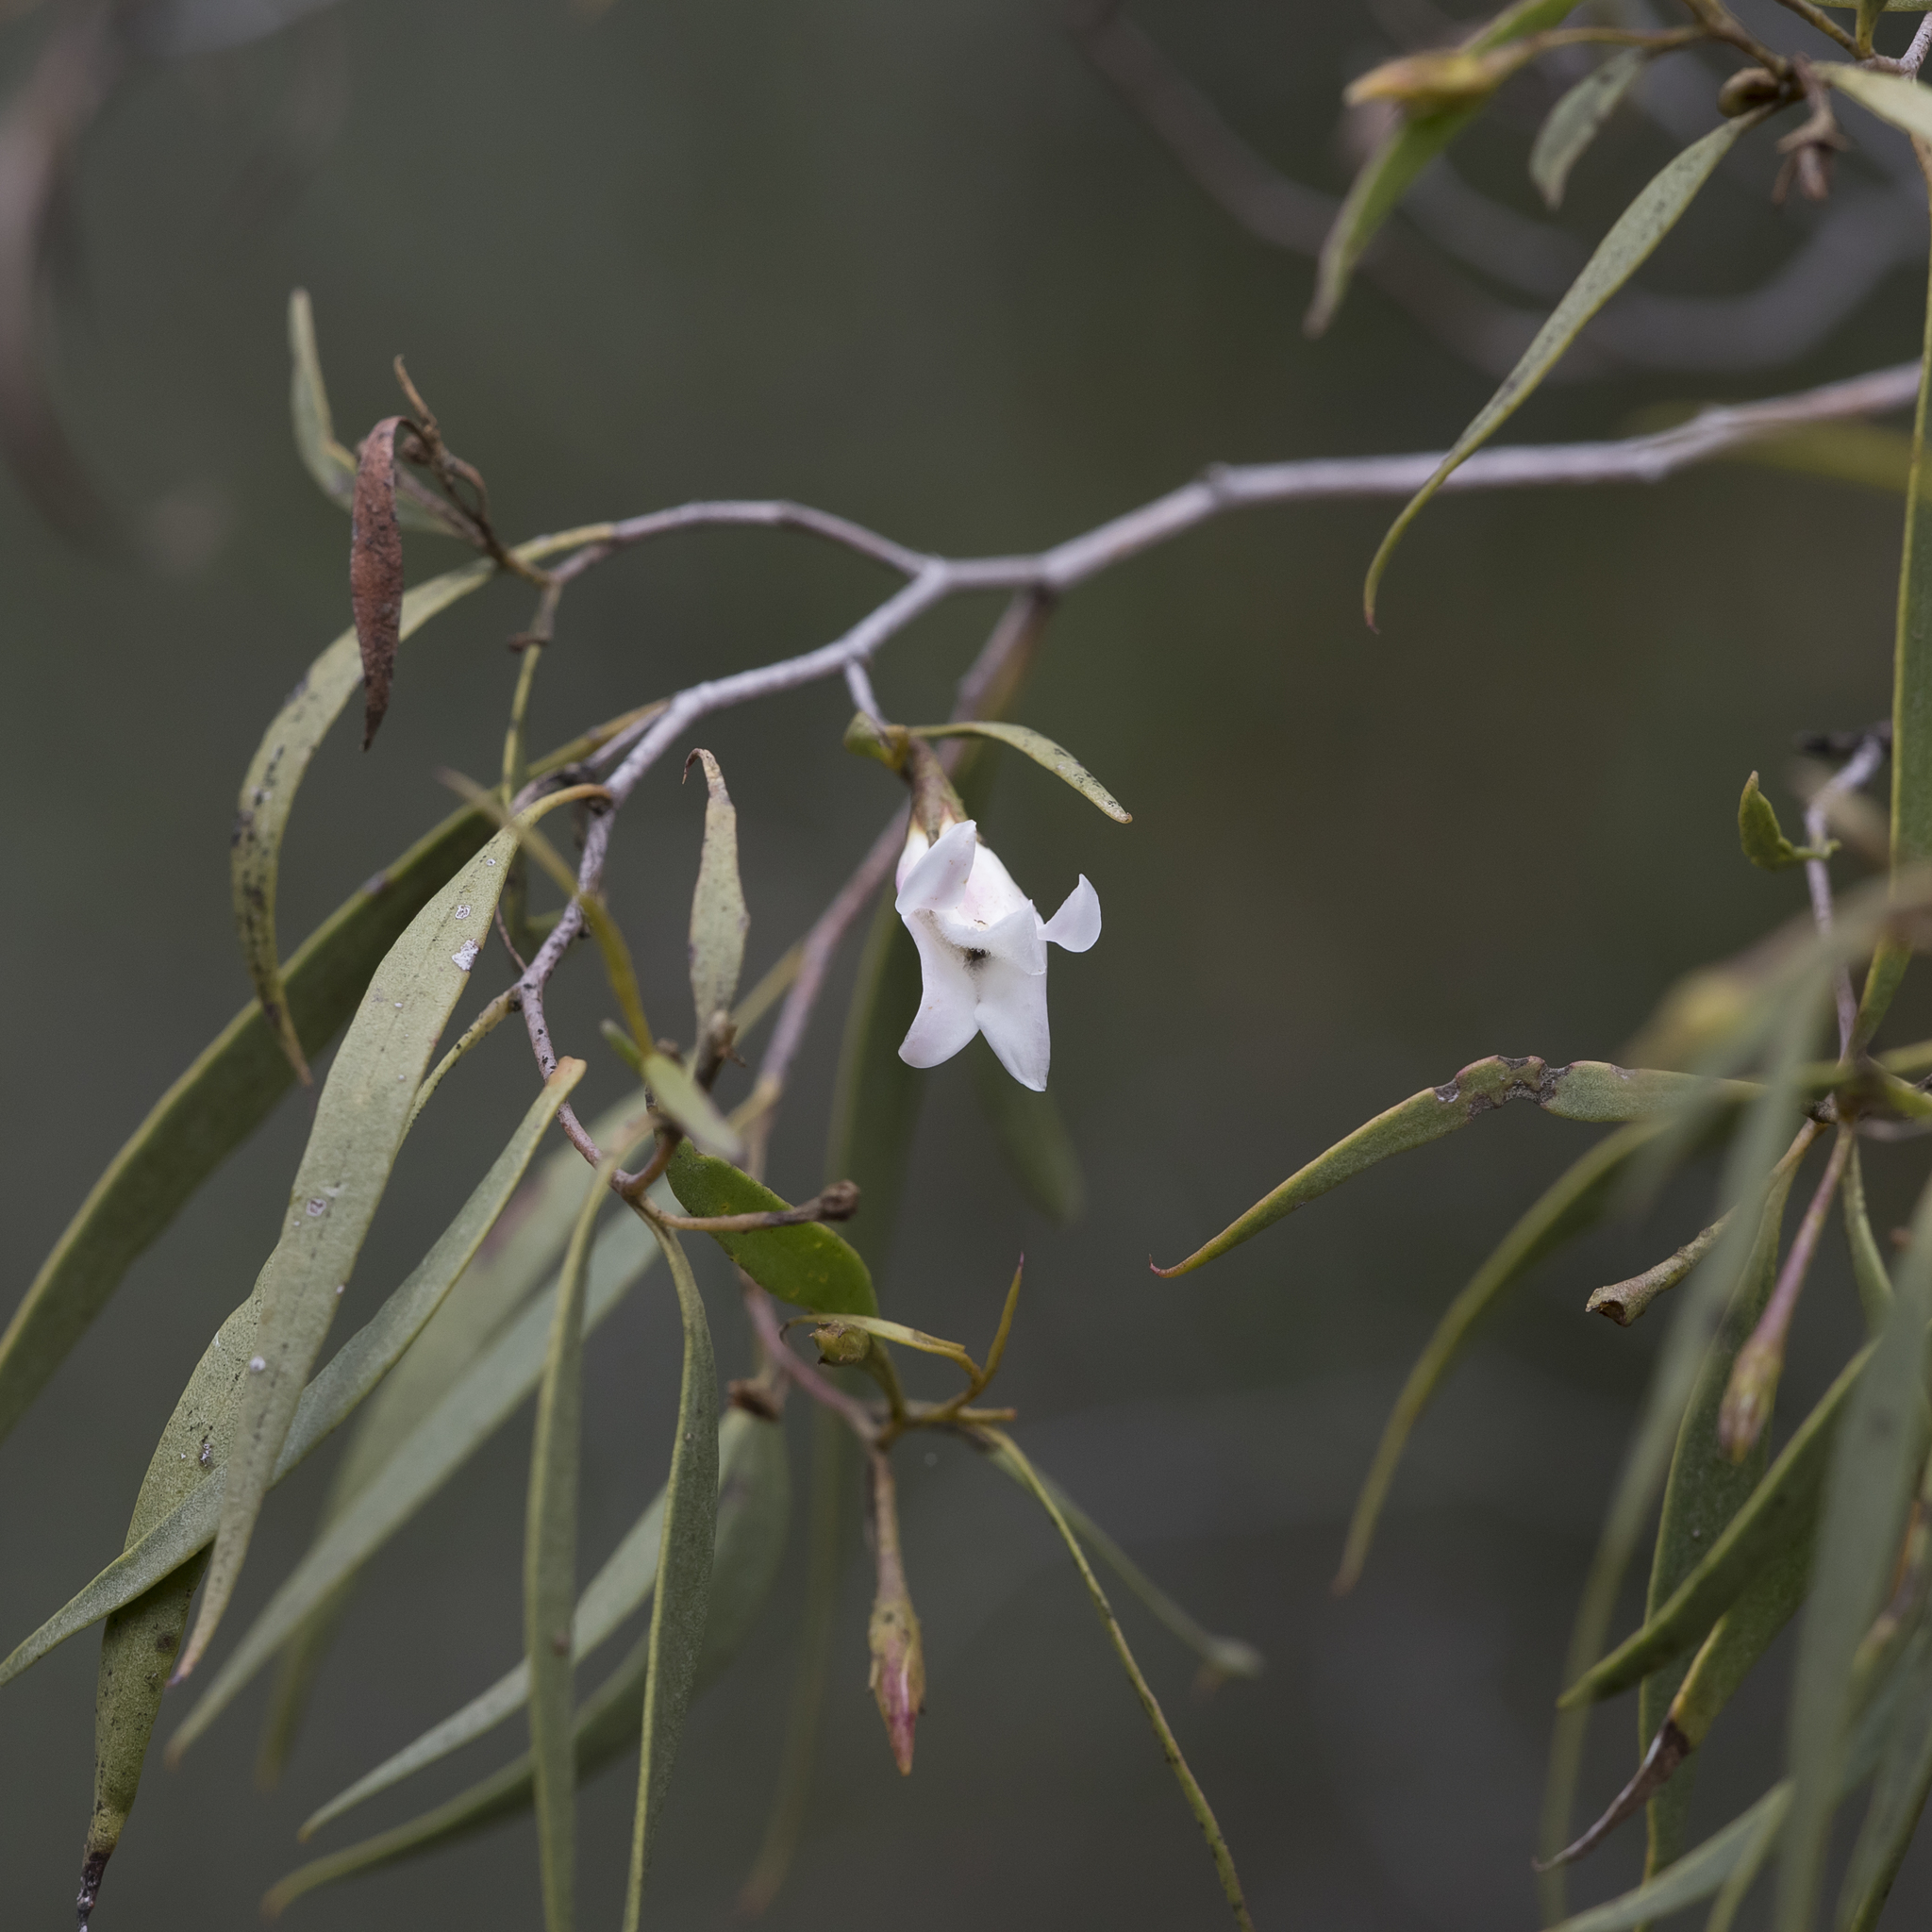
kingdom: Plantae
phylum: Tracheophyta
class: Magnoliopsida
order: Lamiales
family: Scrophulariaceae
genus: Eremophila
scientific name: Eremophila santalina
